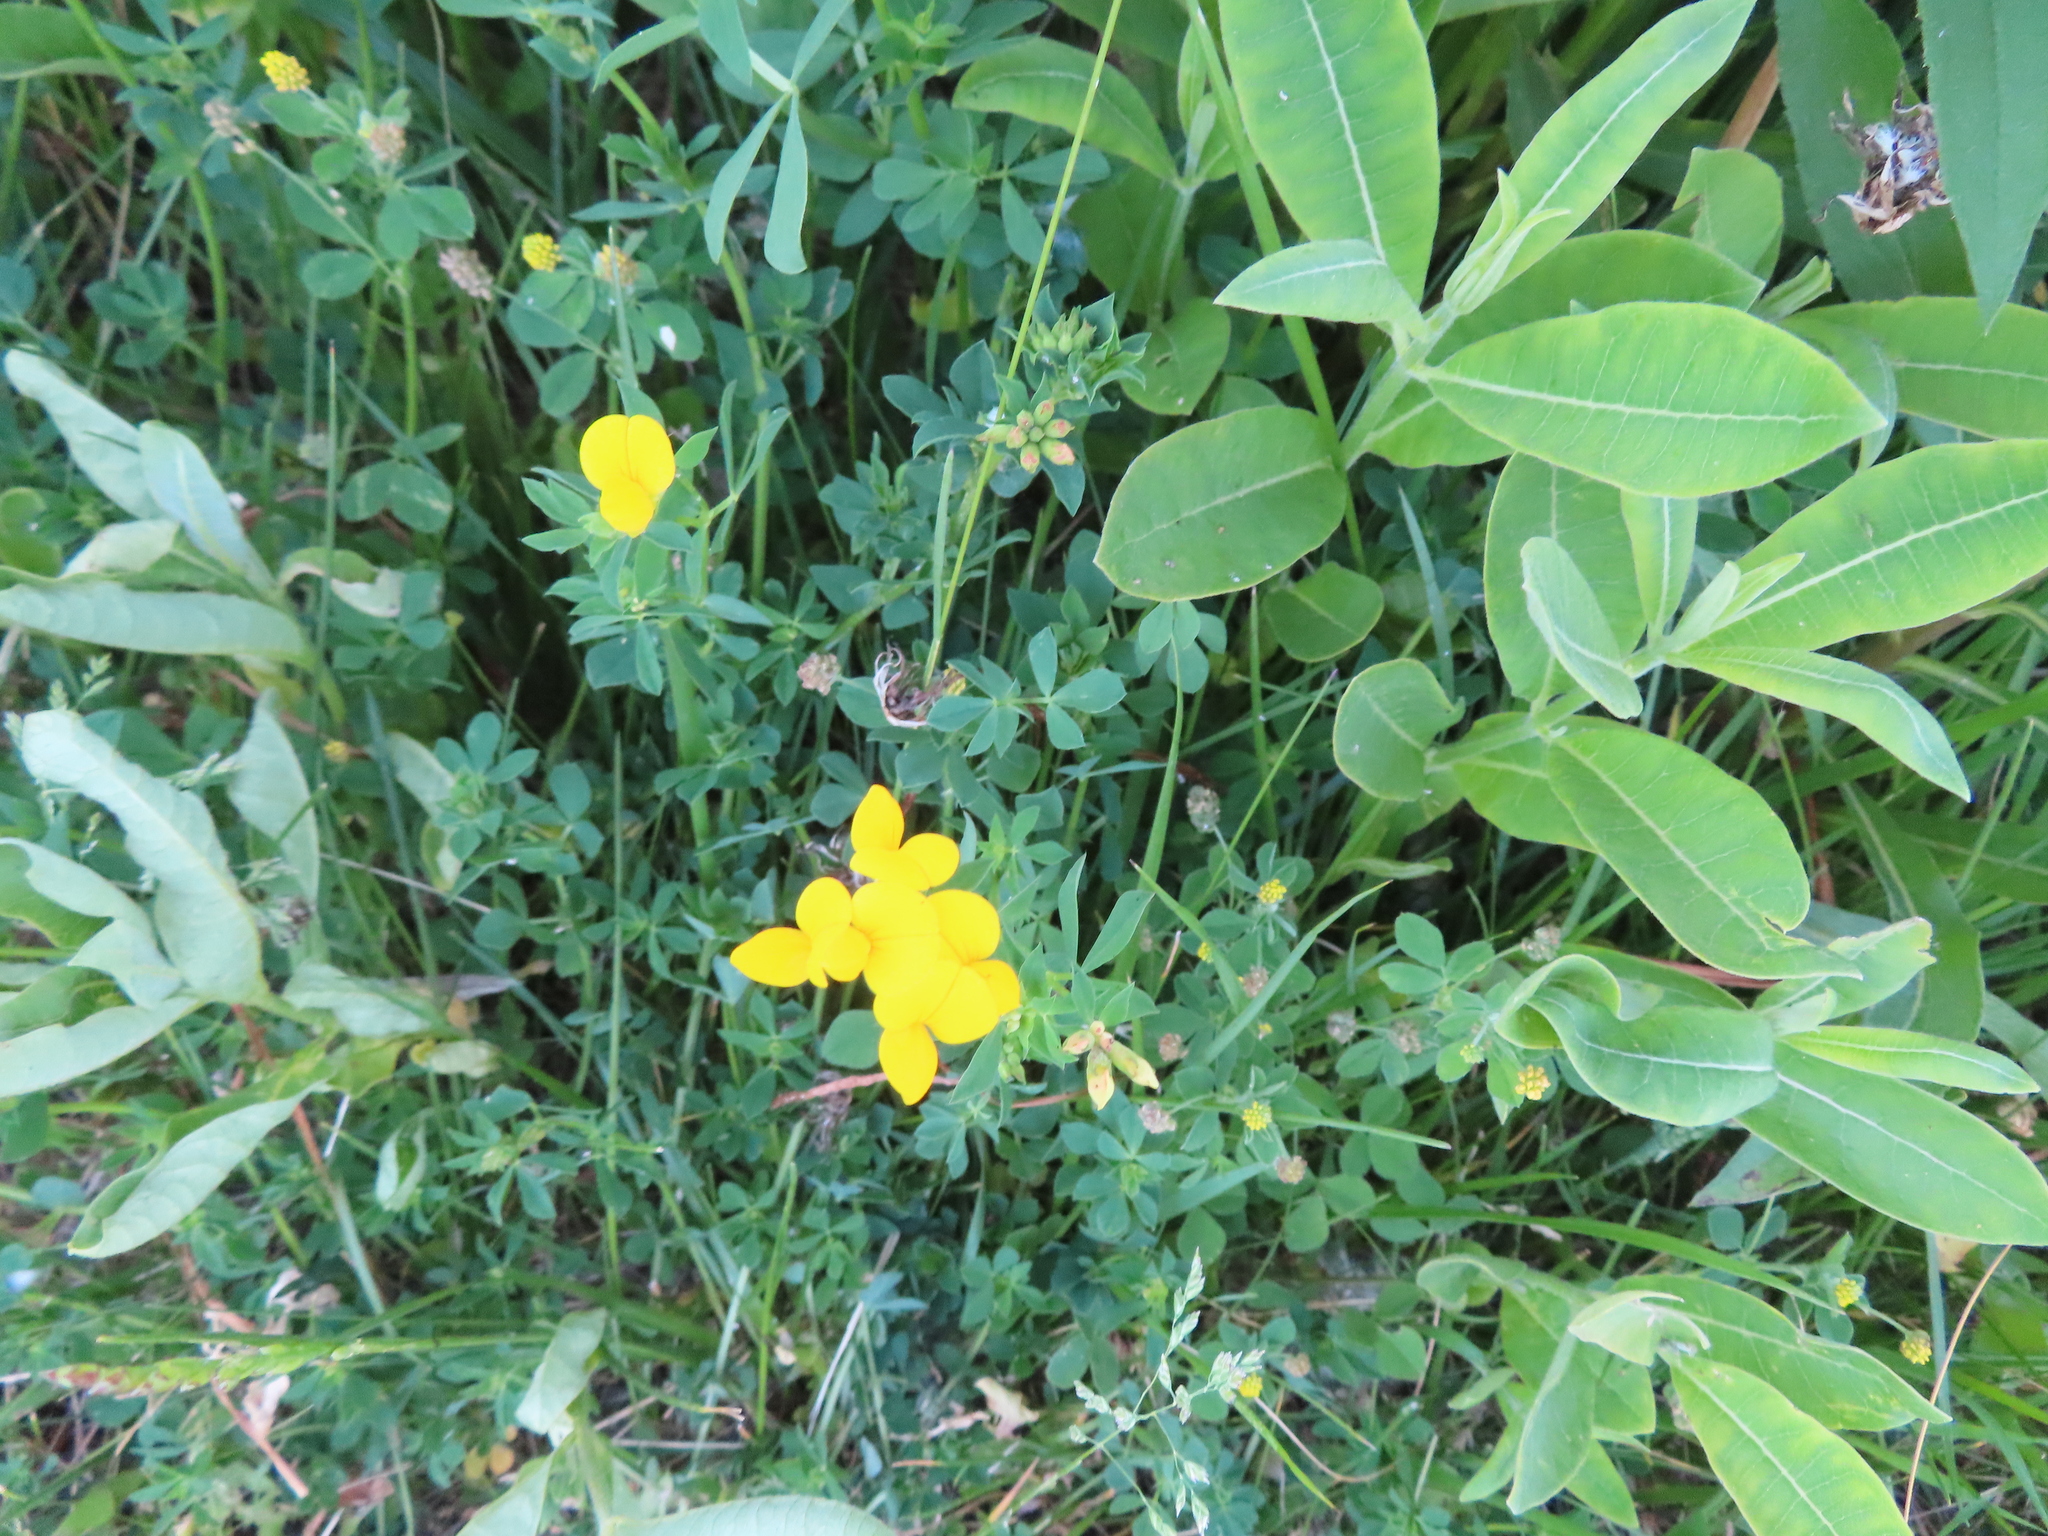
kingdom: Plantae
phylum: Tracheophyta
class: Magnoliopsida
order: Fabales
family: Fabaceae
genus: Lotus
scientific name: Lotus corniculatus
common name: Common bird's-foot-trefoil
